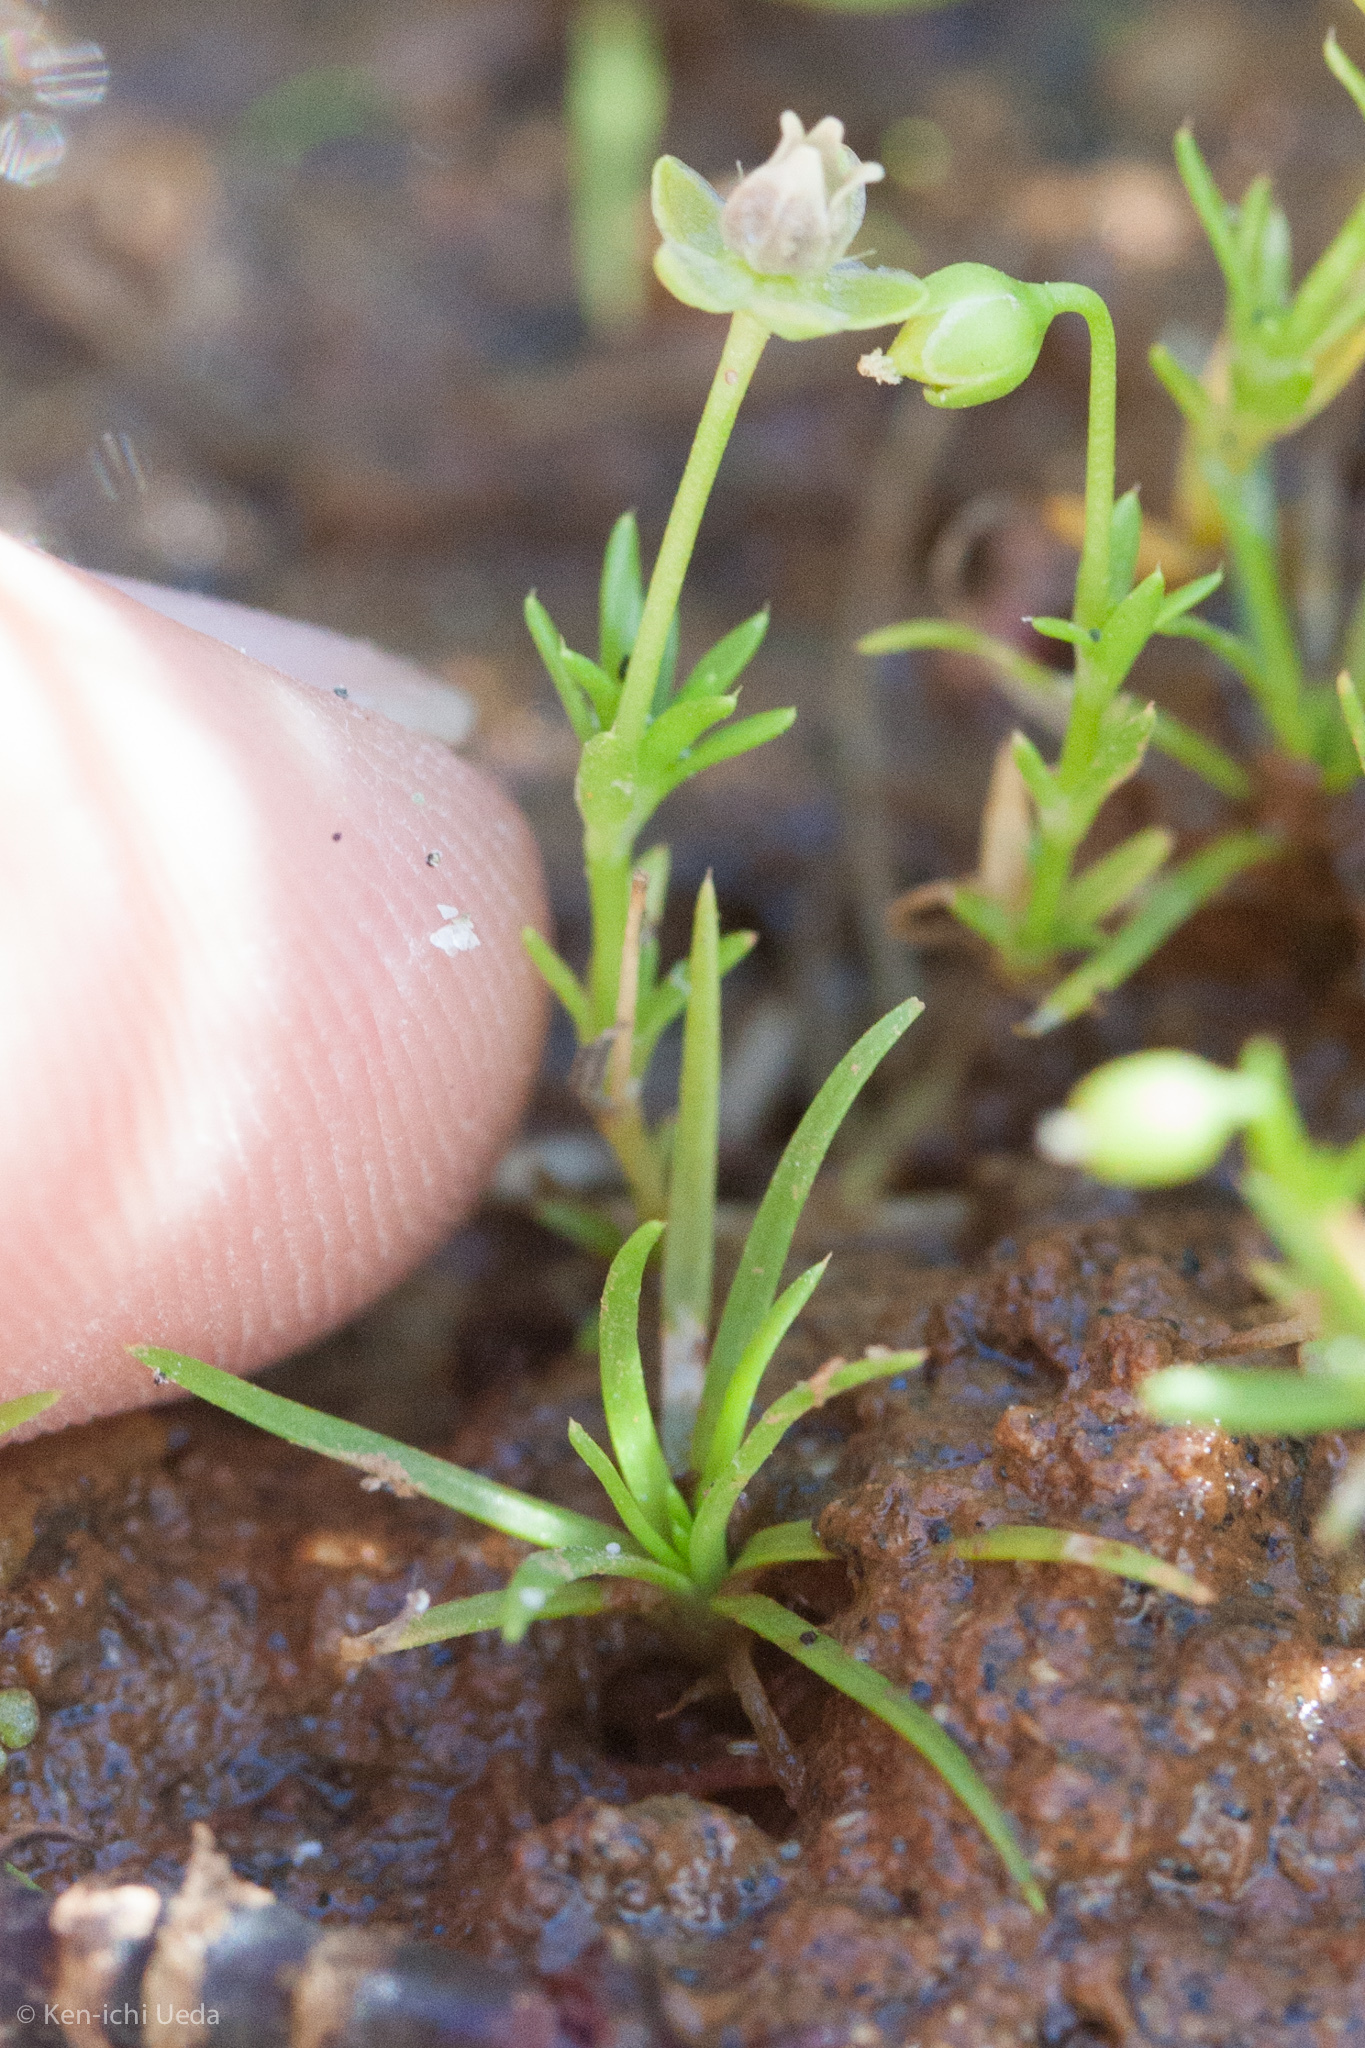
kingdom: Plantae
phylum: Tracheophyta
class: Magnoliopsida
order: Caryophyllales
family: Caryophyllaceae
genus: Sagina
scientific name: Sagina procumbens
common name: Procumbent pearlwort
